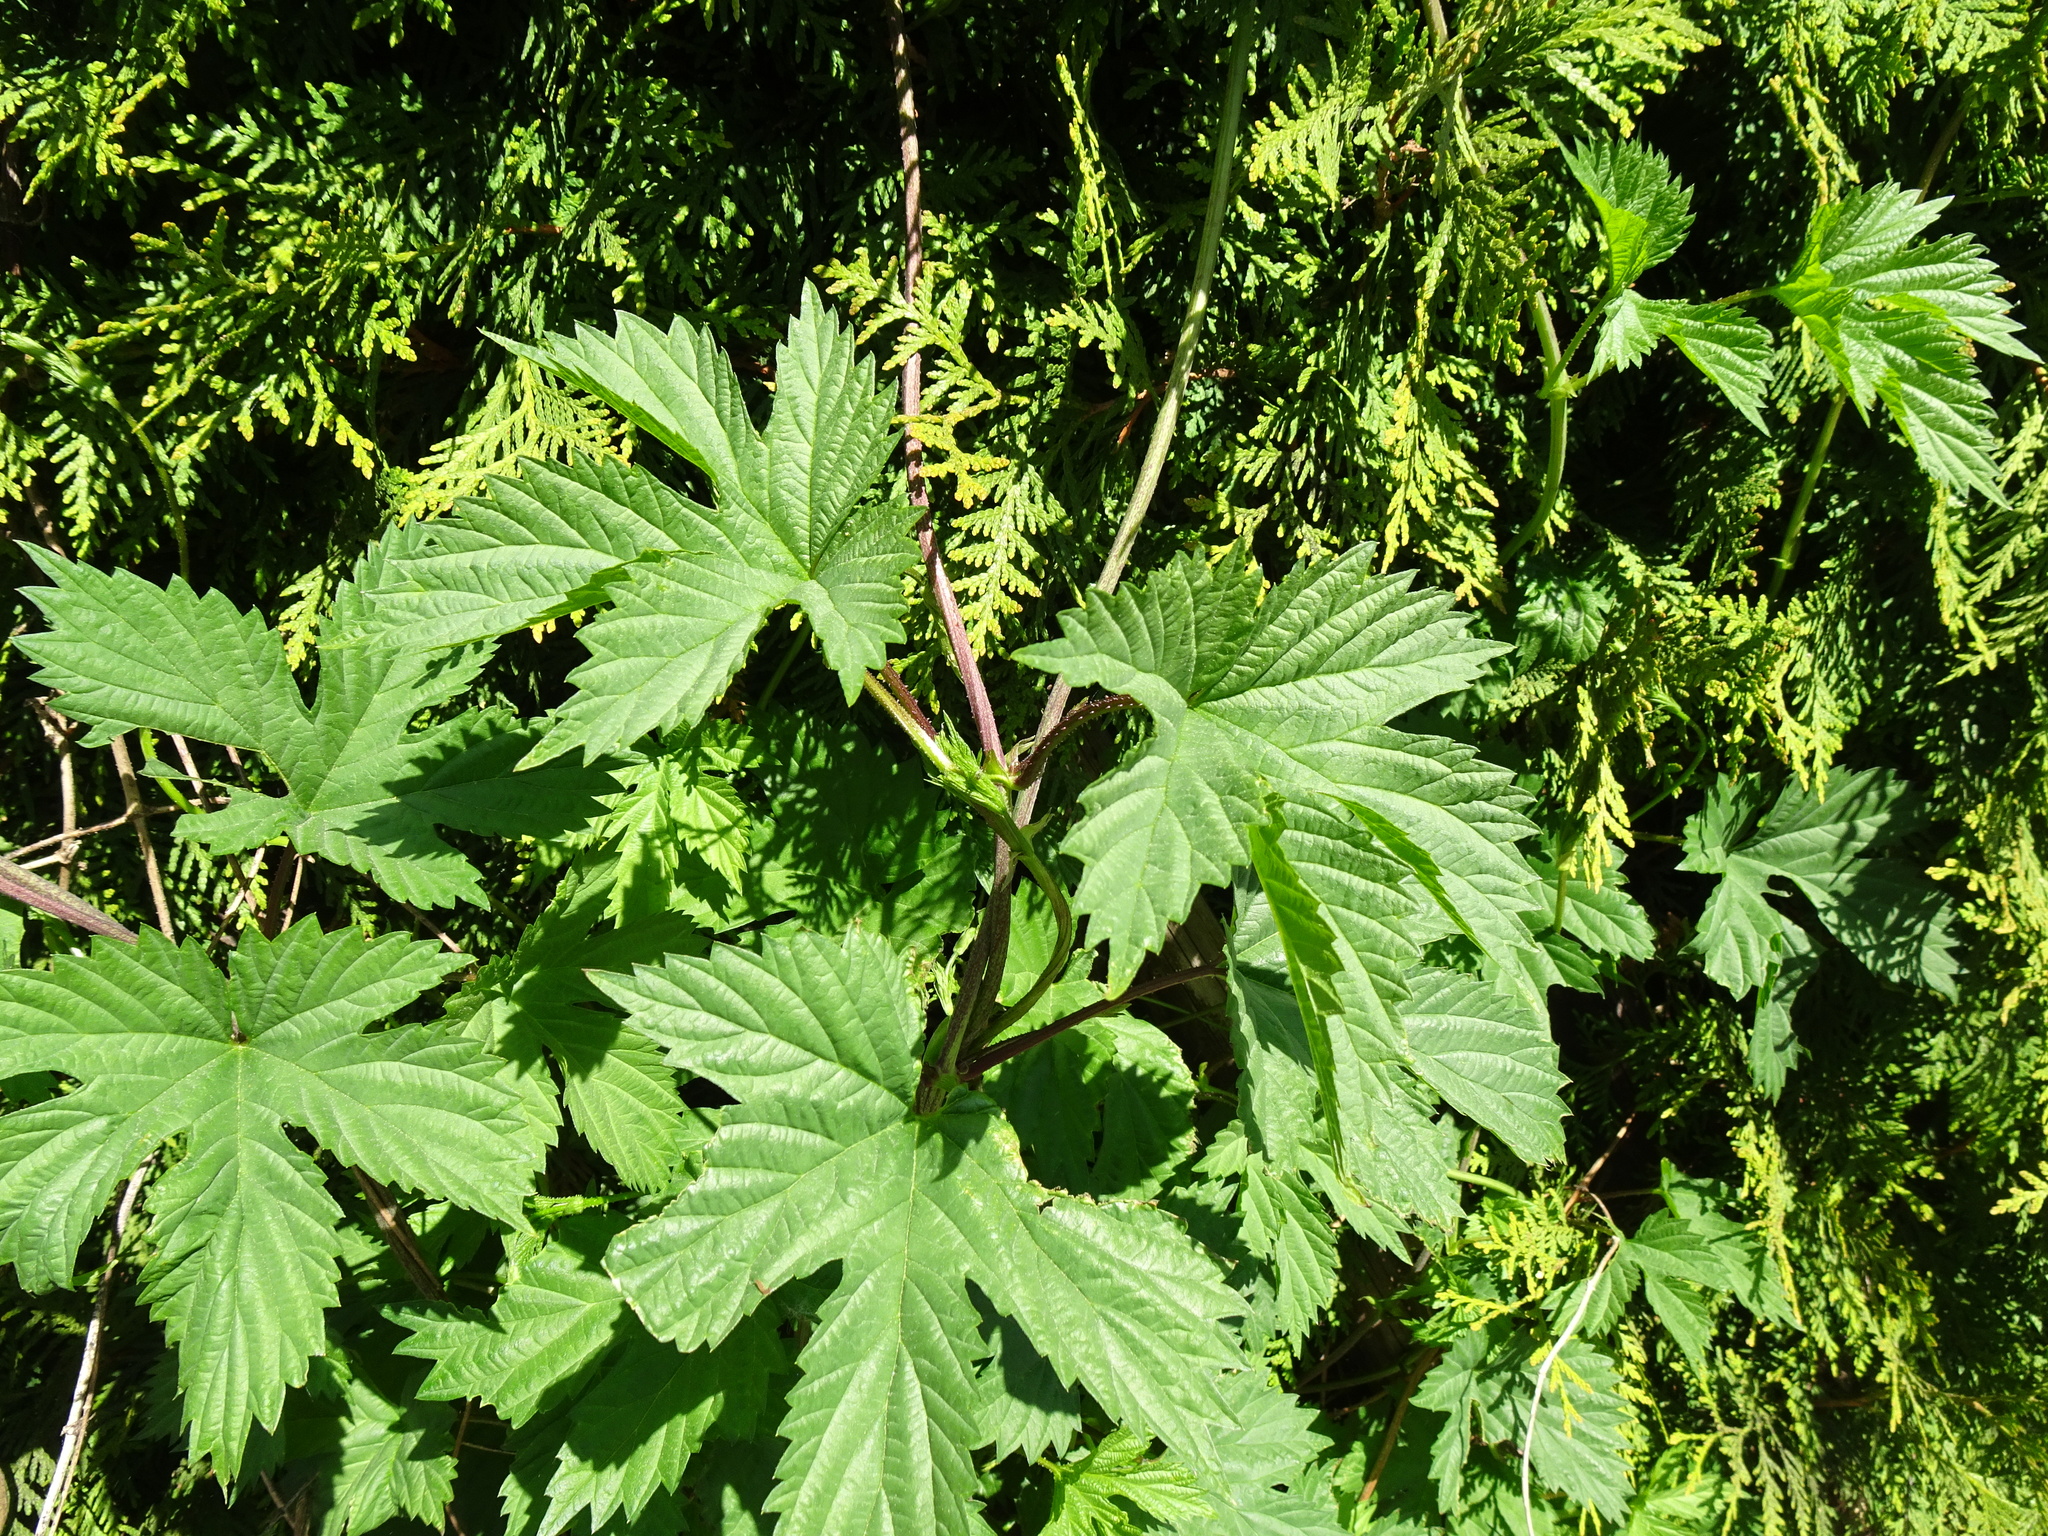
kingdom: Plantae
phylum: Tracheophyta
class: Magnoliopsida
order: Rosales
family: Cannabaceae
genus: Humulus
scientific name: Humulus lupulus
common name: Hop
